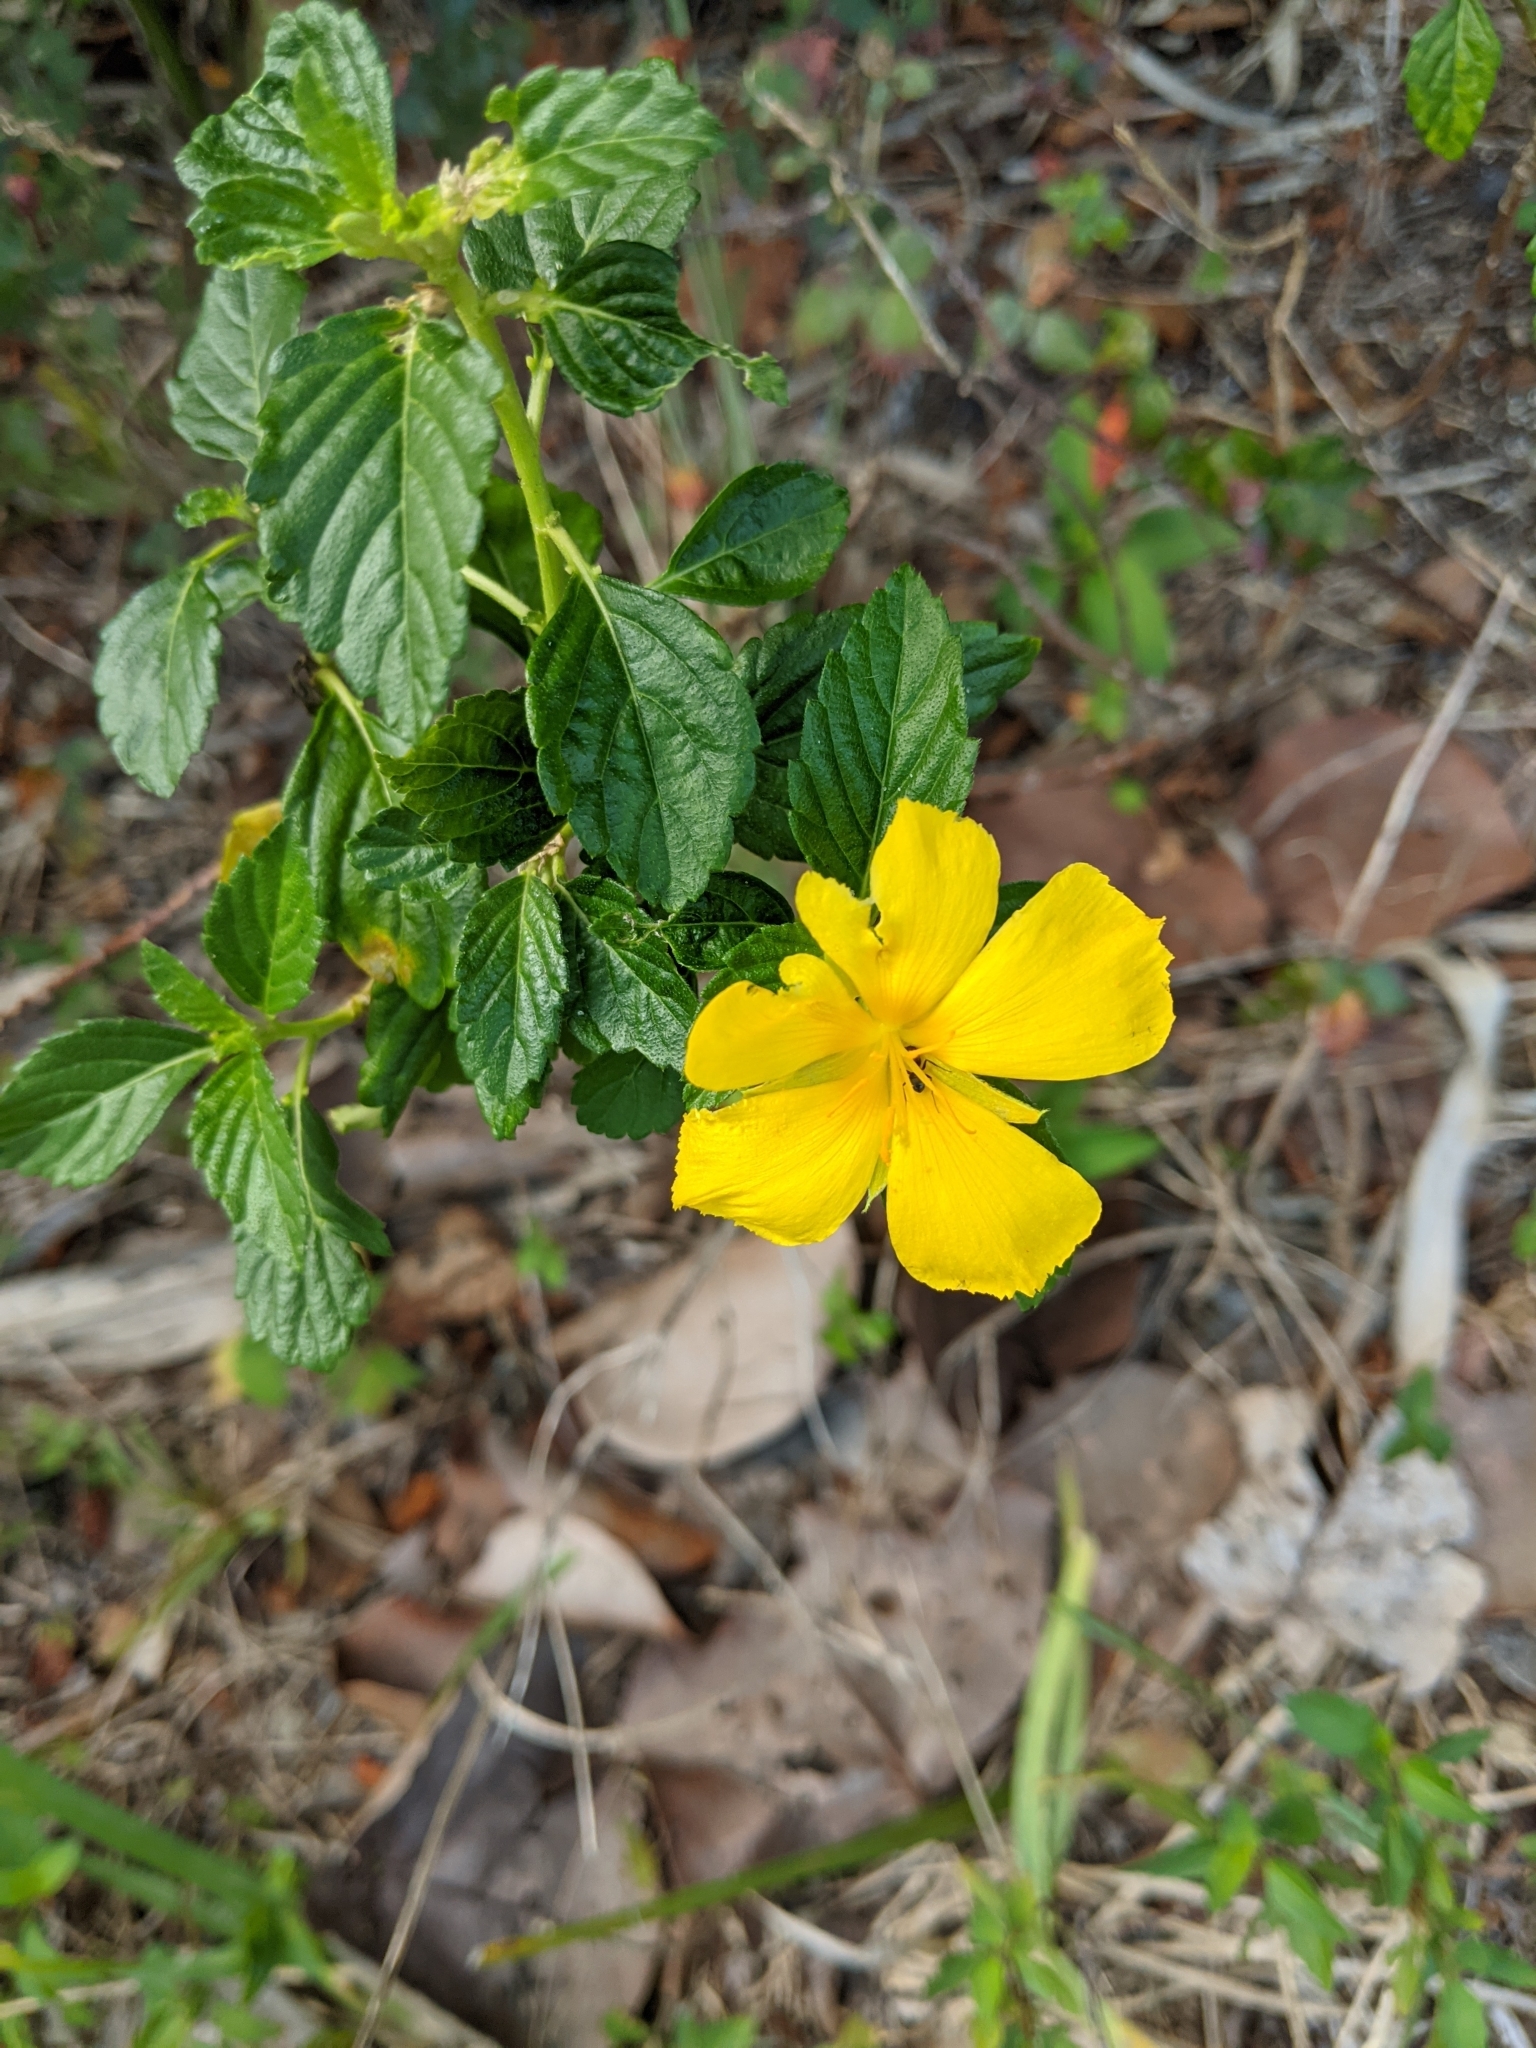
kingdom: Plantae
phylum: Tracheophyta
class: Magnoliopsida
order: Malpighiales
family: Turneraceae
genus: Turnera
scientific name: Turnera ulmifolia
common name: Ramgoat dashalong
